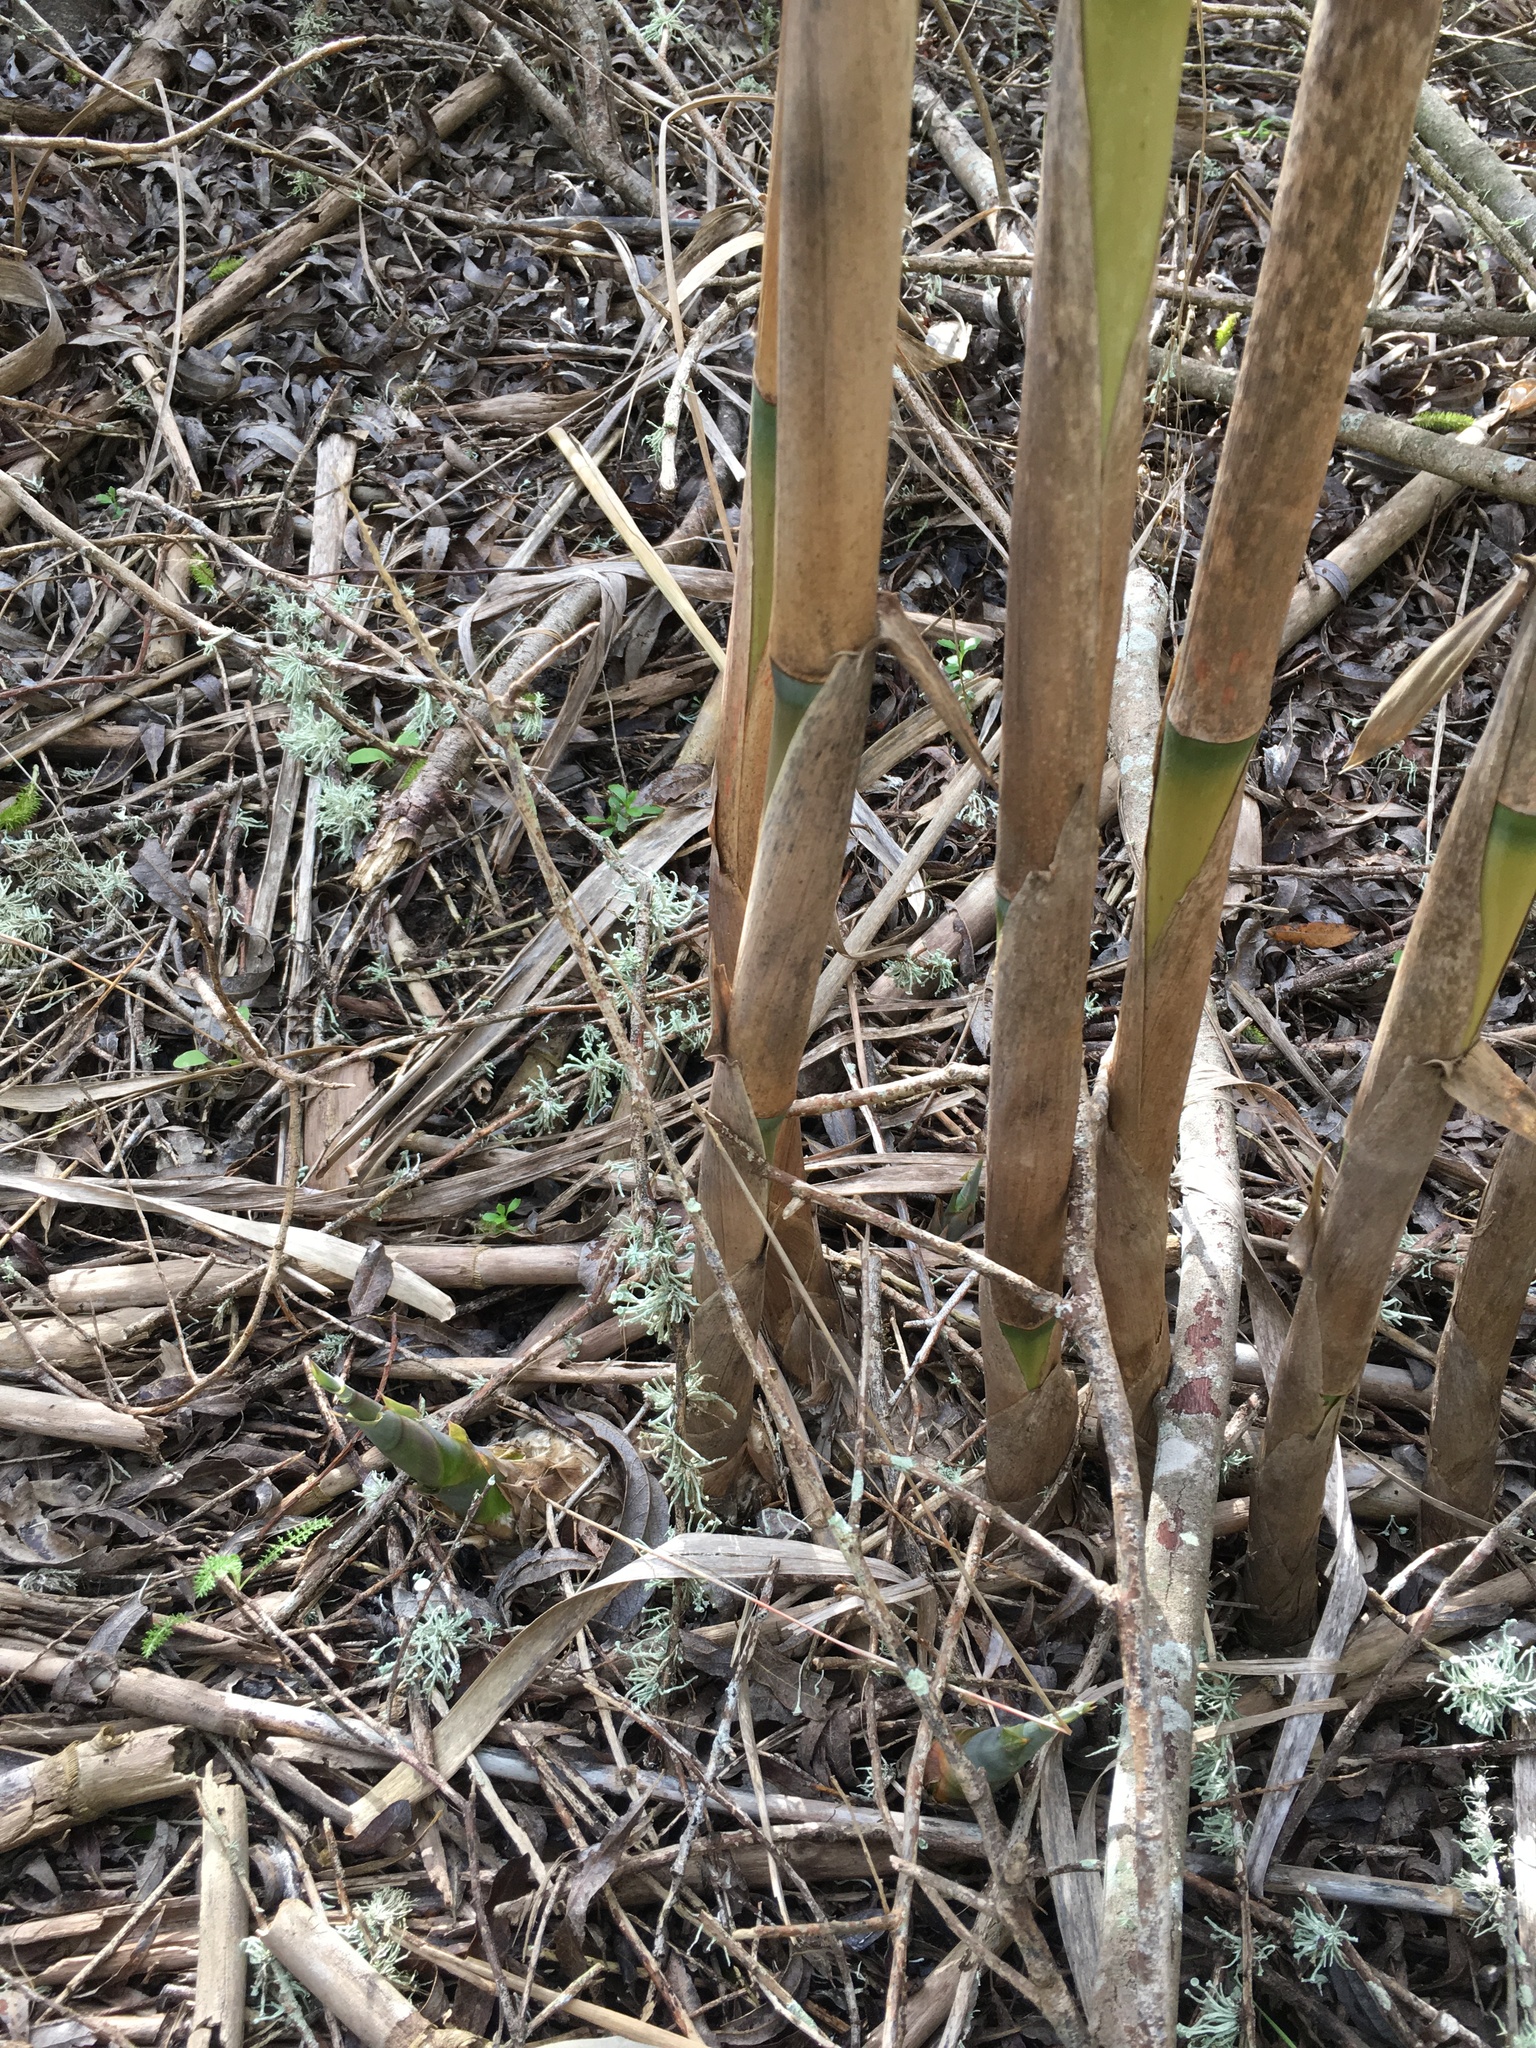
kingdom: Plantae
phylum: Tracheophyta
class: Liliopsida
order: Poales
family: Poaceae
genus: Arundo
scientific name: Arundo donax
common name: Giant reed
